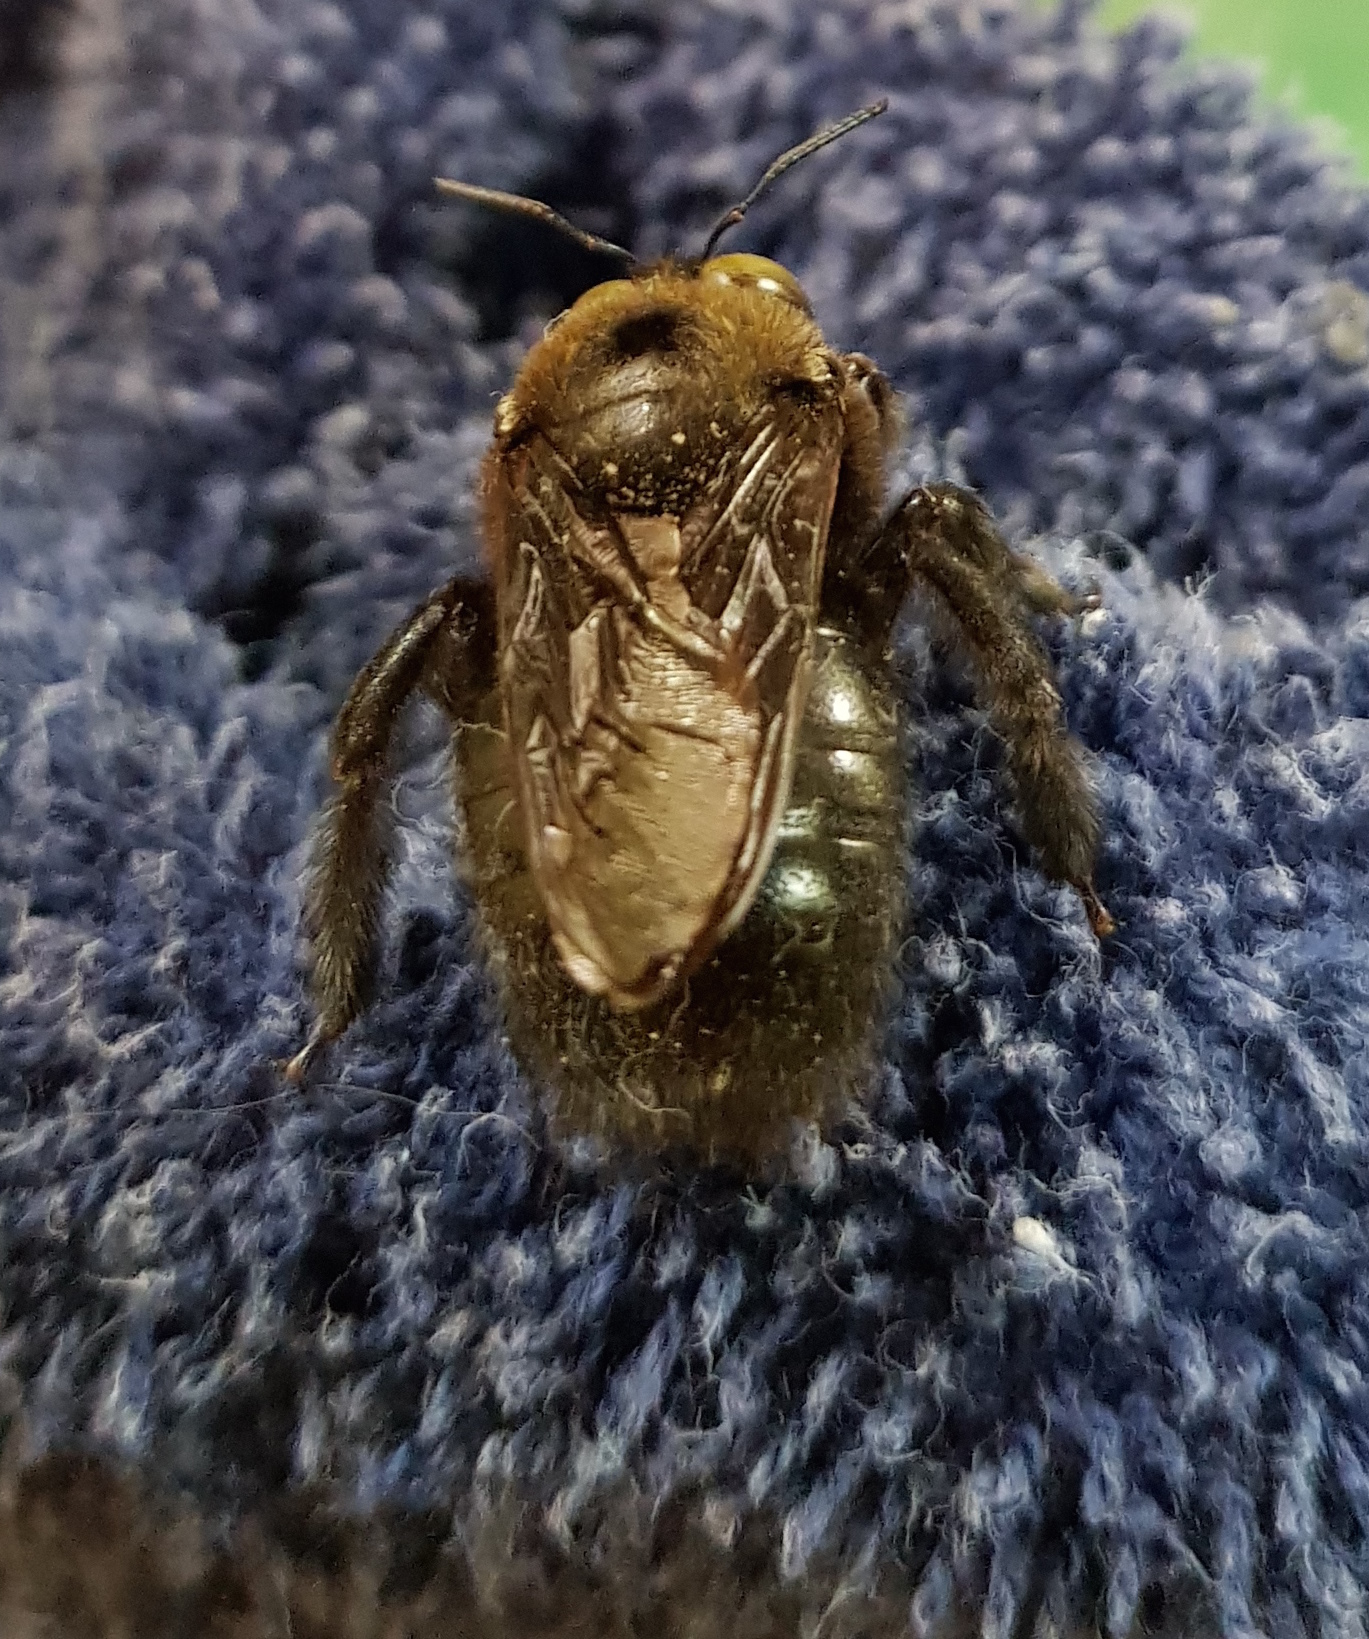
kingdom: Animalia
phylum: Arthropoda
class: Insecta
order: Hymenoptera
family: Apidae
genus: Xylocopa
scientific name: Xylocopa guatemalensis
